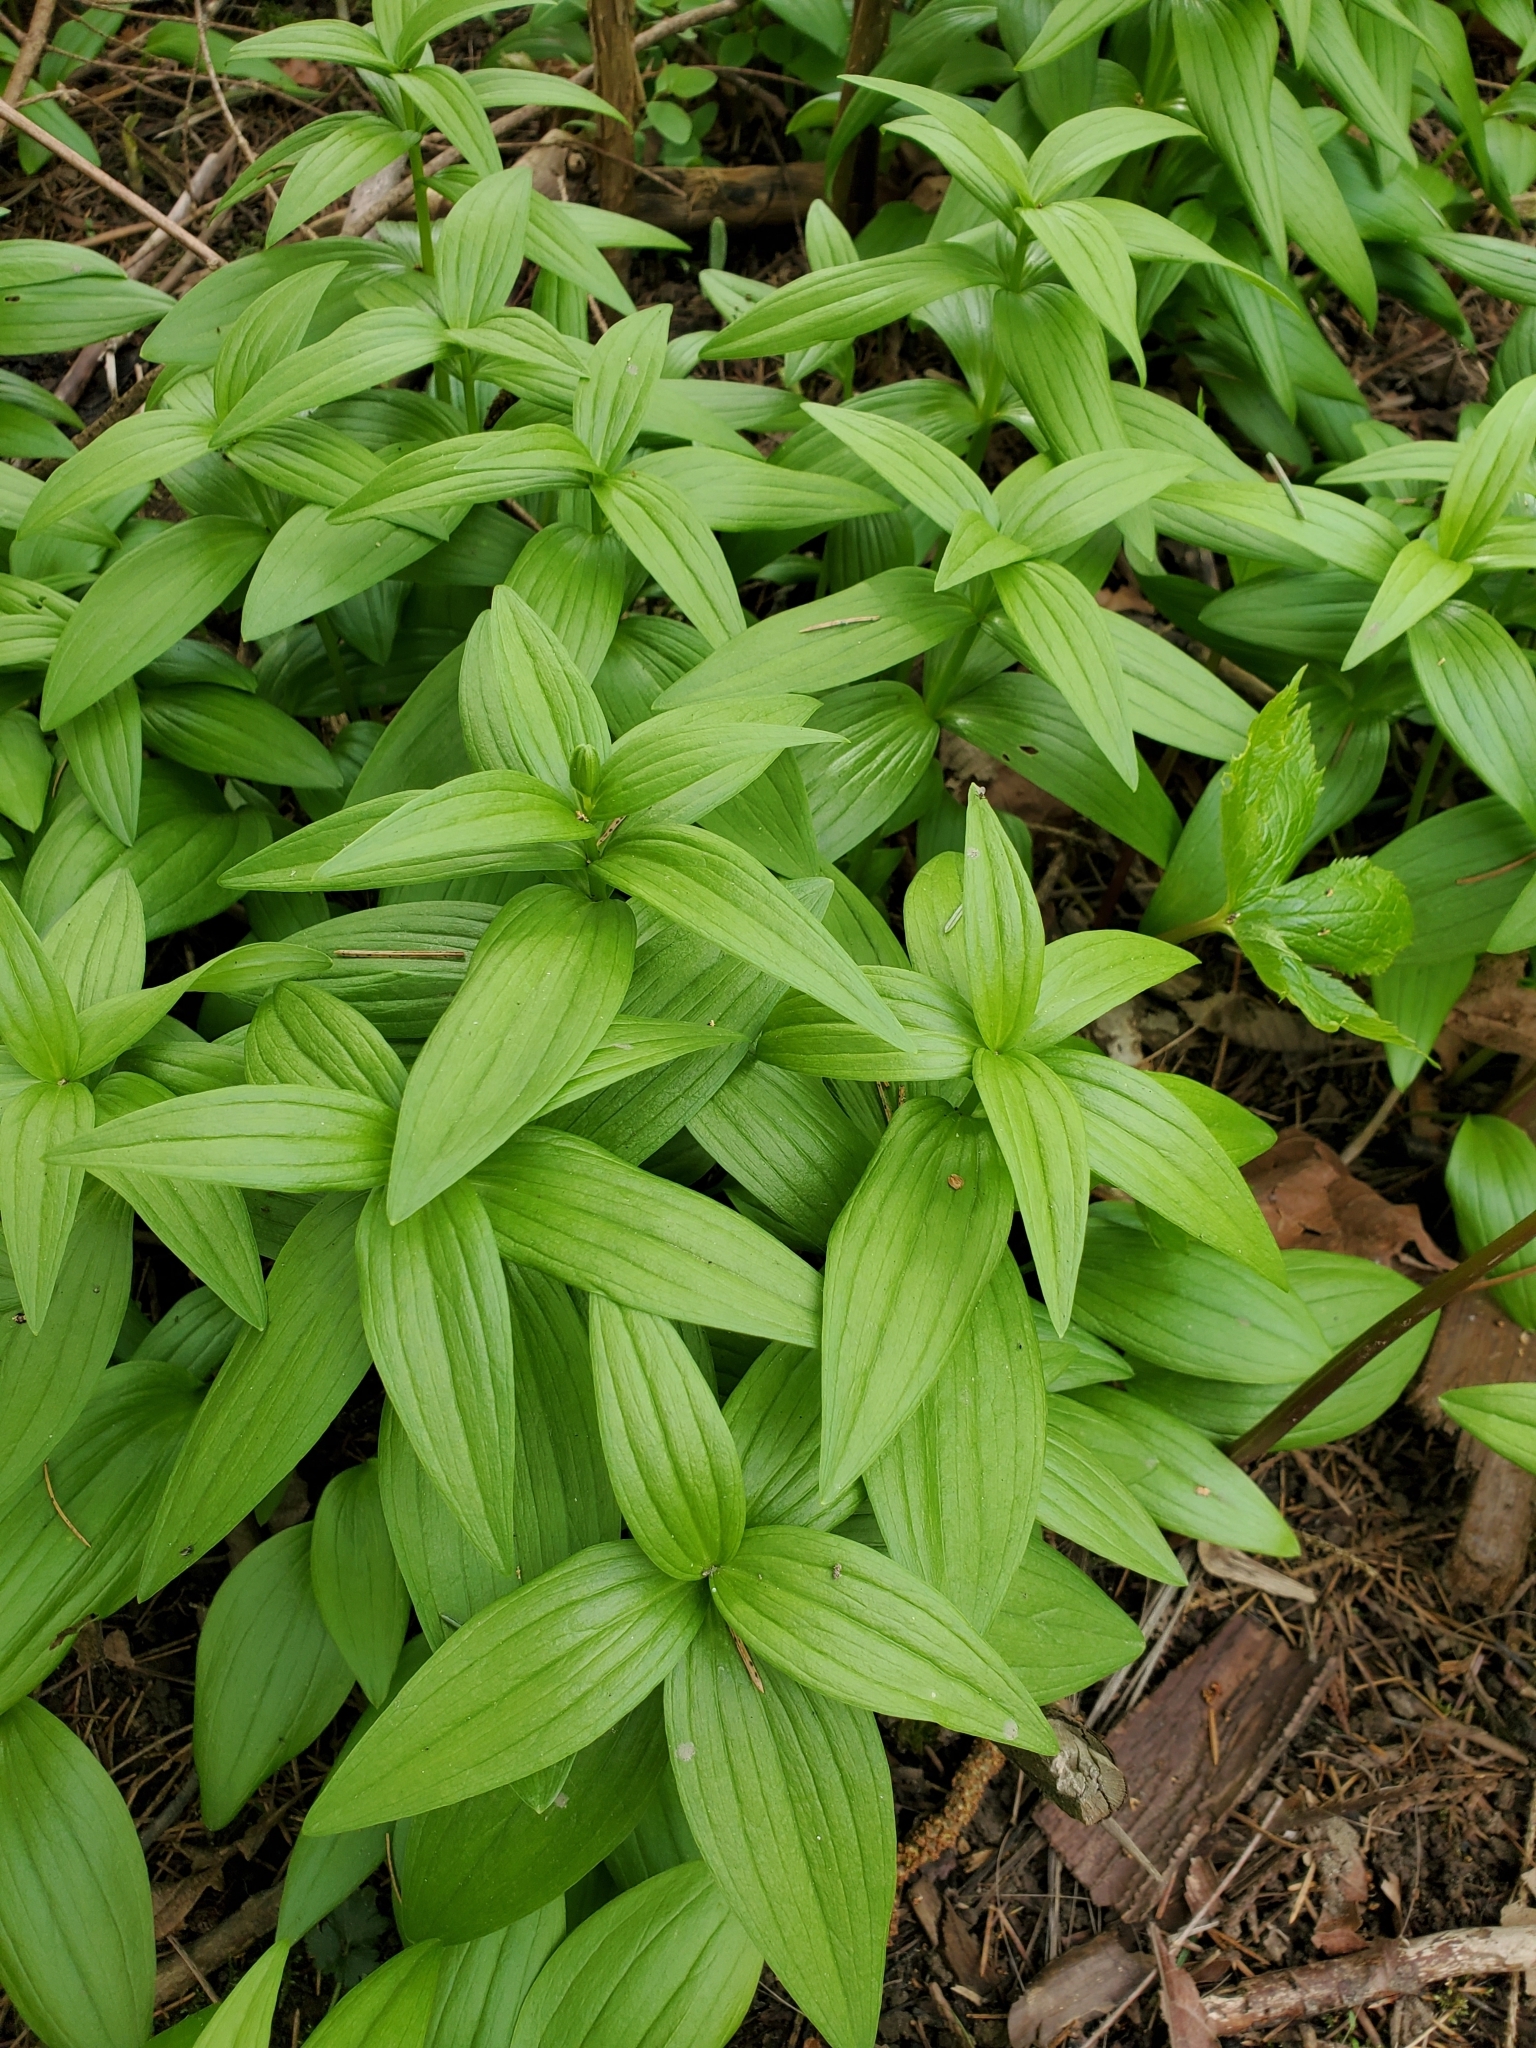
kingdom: Plantae
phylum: Tracheophyta
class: Liliopsida
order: Liliales
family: Liliaceae
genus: Fritillaria
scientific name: Fritillaria camschatcensis
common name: Kamchatka fritillary
